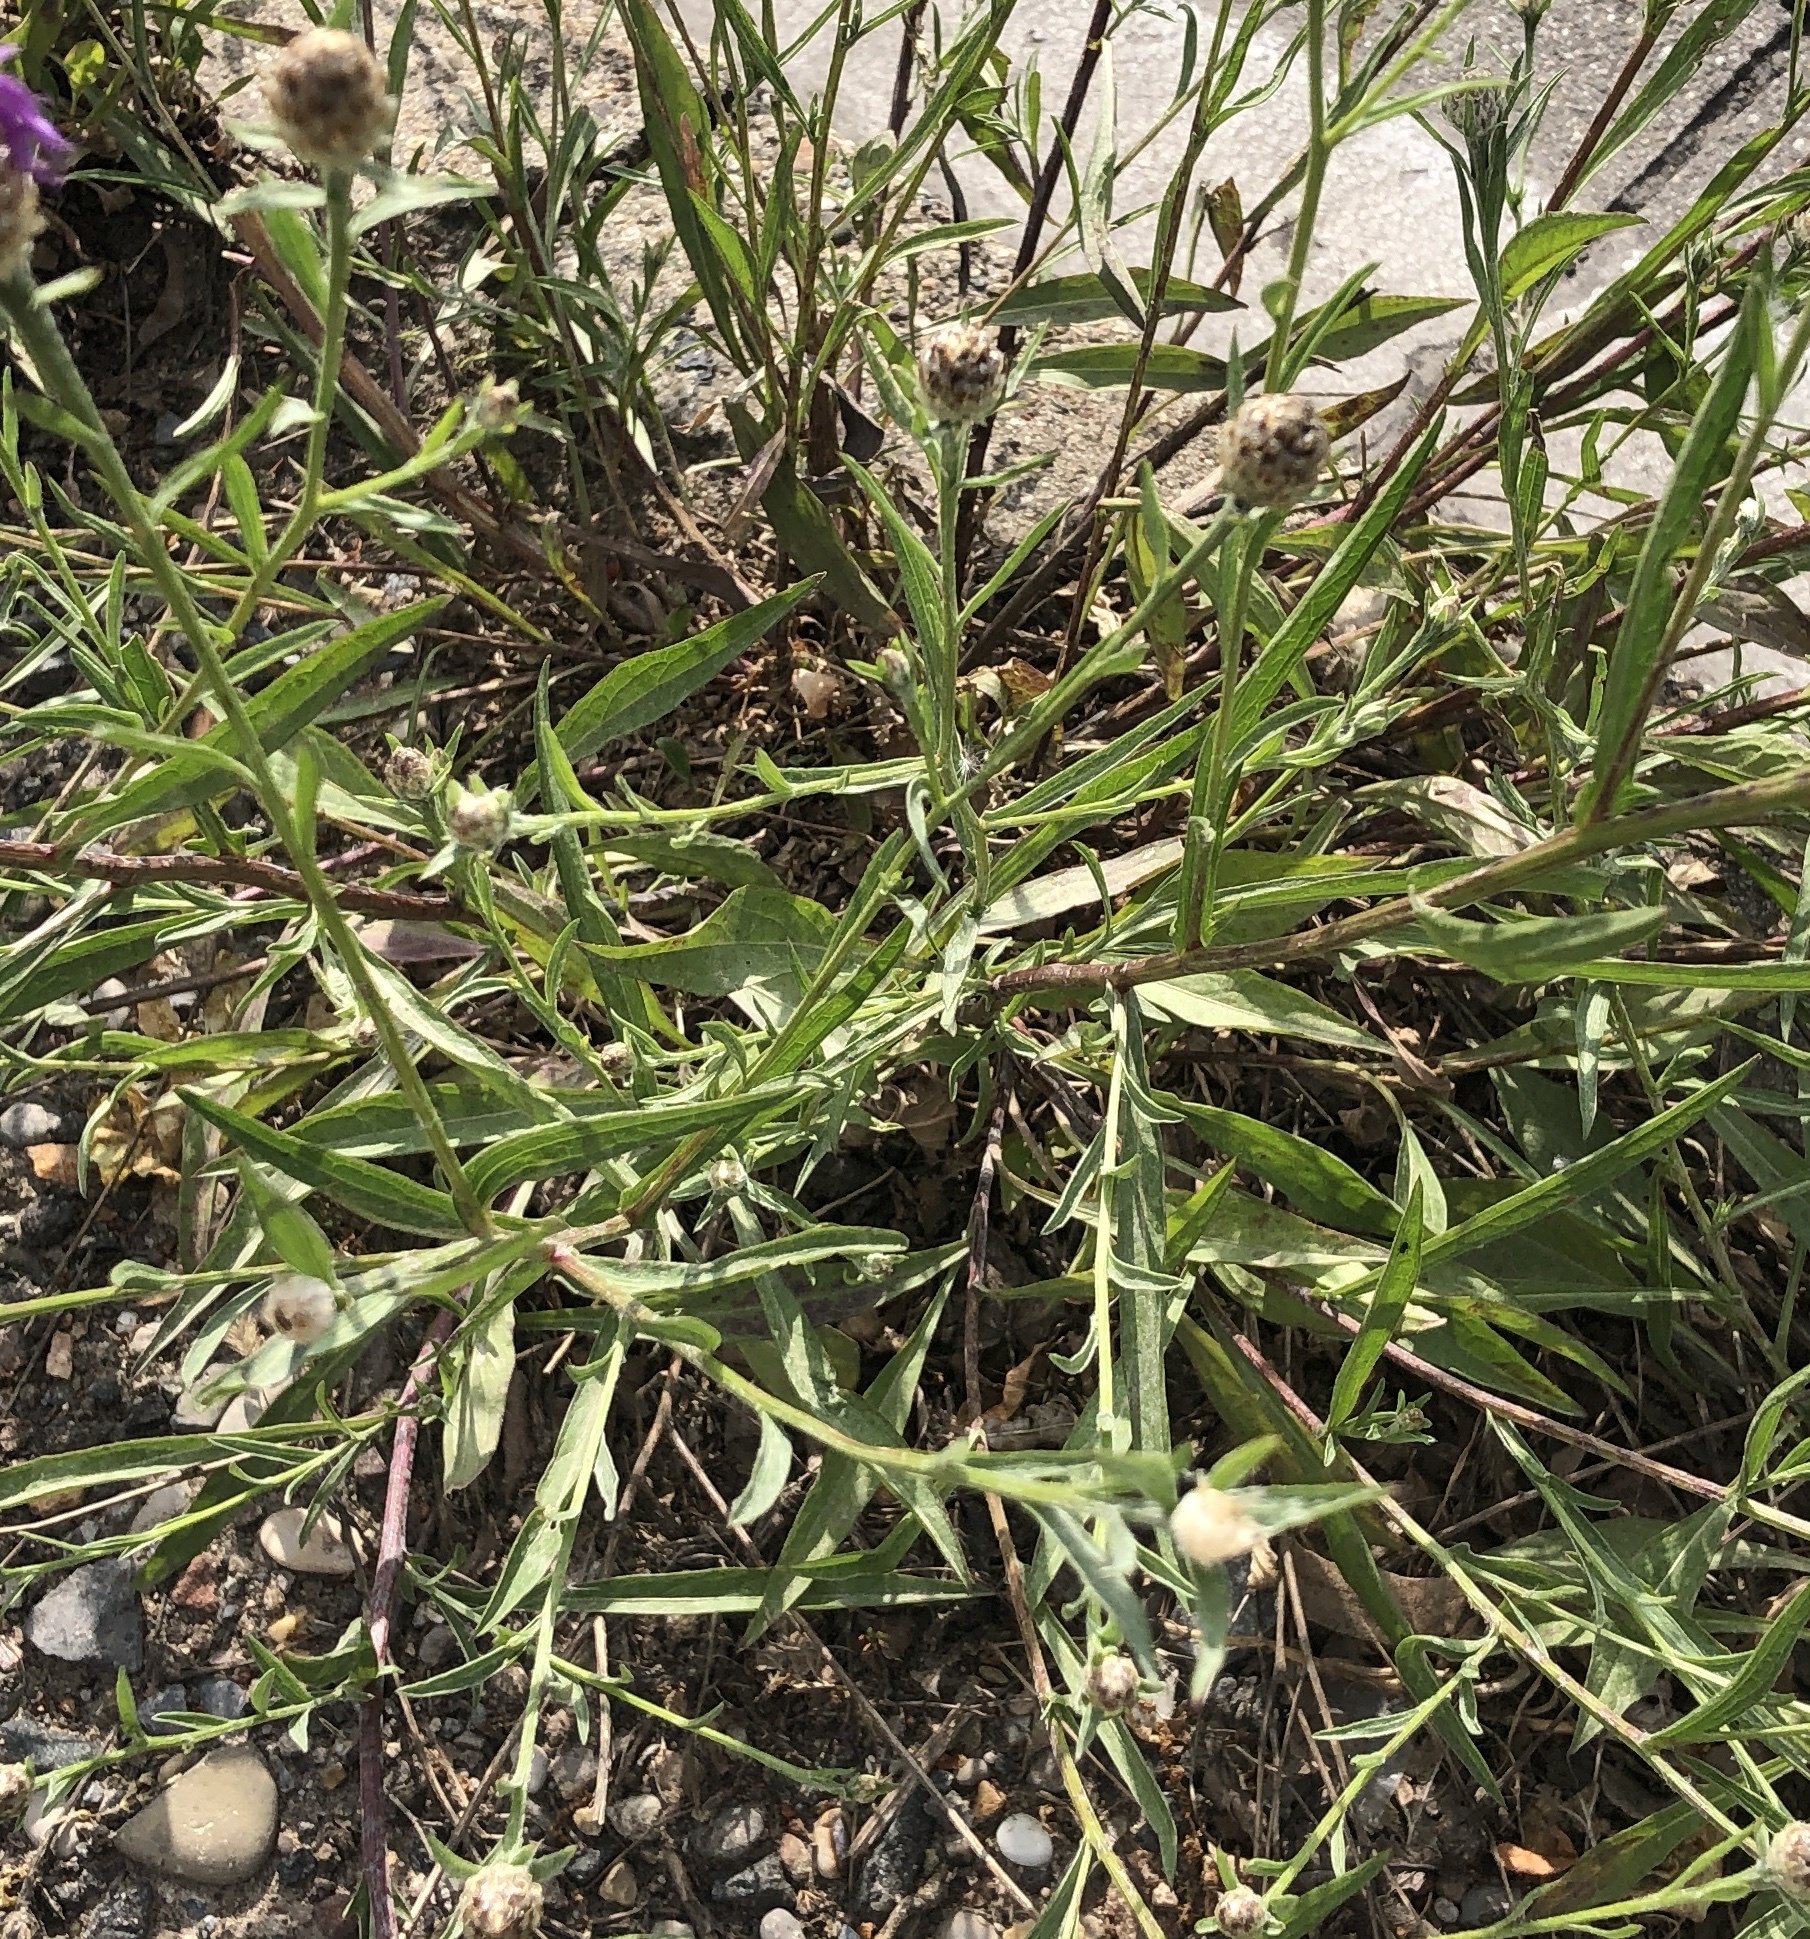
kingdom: Plantae
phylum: Tracheophyta
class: Magnoliopsida
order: Asterales
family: Asteraceae
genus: Centaurea
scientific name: Centaurea jacea
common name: Brown knapweed
